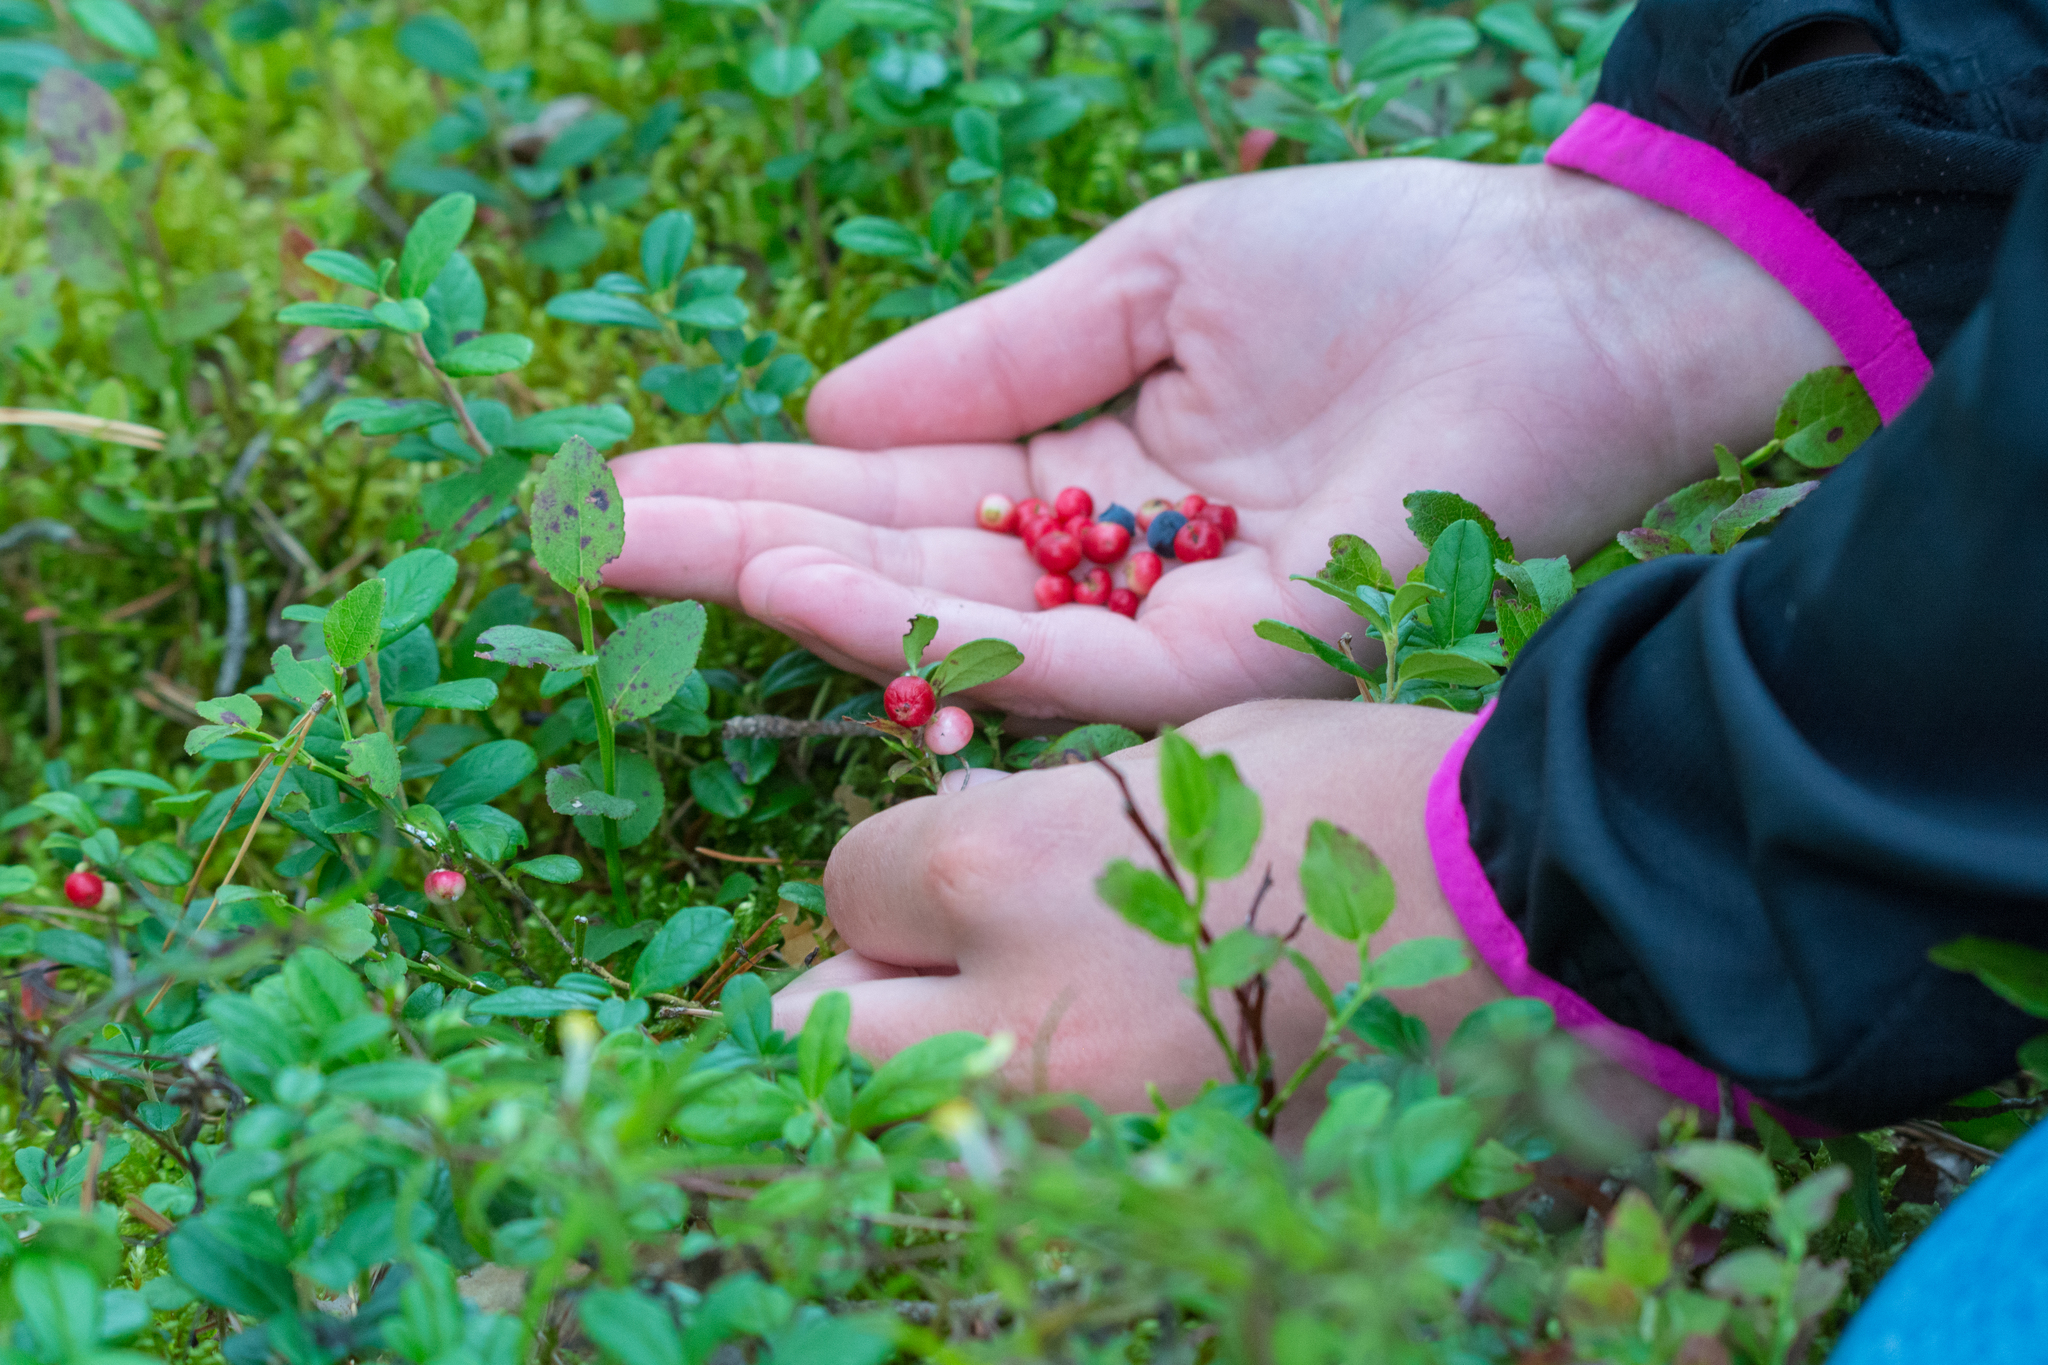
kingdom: Plantae
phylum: Tracheophyta
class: Magnoliopsida
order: Ericales
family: Ericaceae
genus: Vaccinium
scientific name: Vaccinium vitis-idaea
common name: Cowberry
